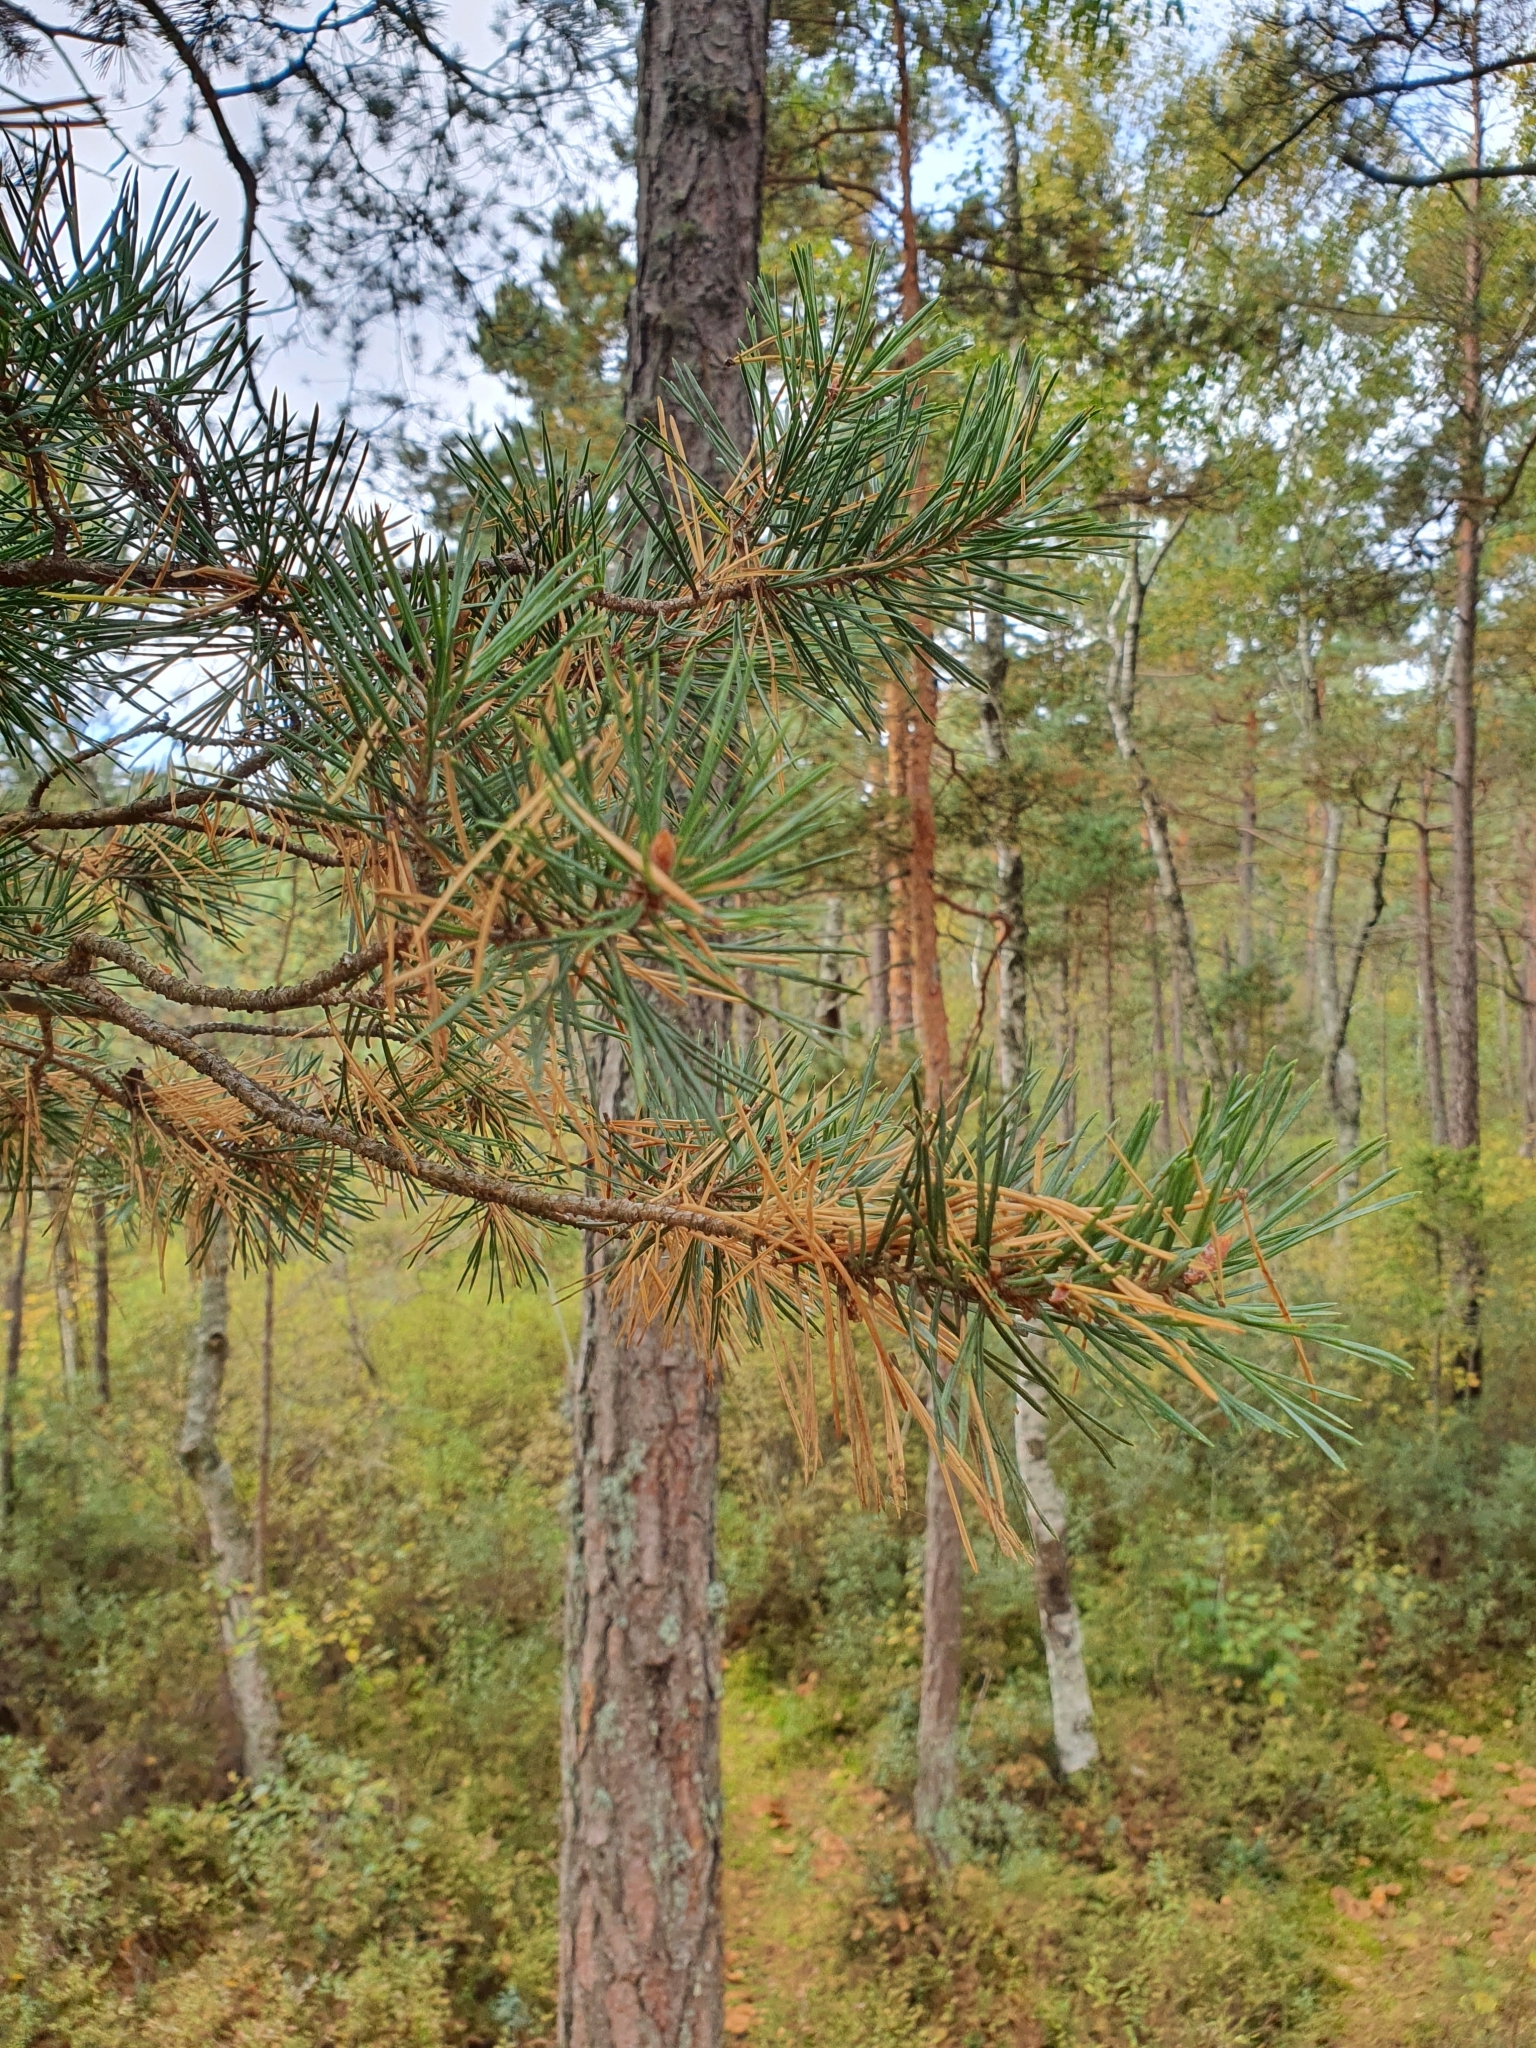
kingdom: Plantae
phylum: Tracheophyta
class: Pinopsida
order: Pinales
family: Pinaceae
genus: Pinus
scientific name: Pinus sylvestris
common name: Scots pine
